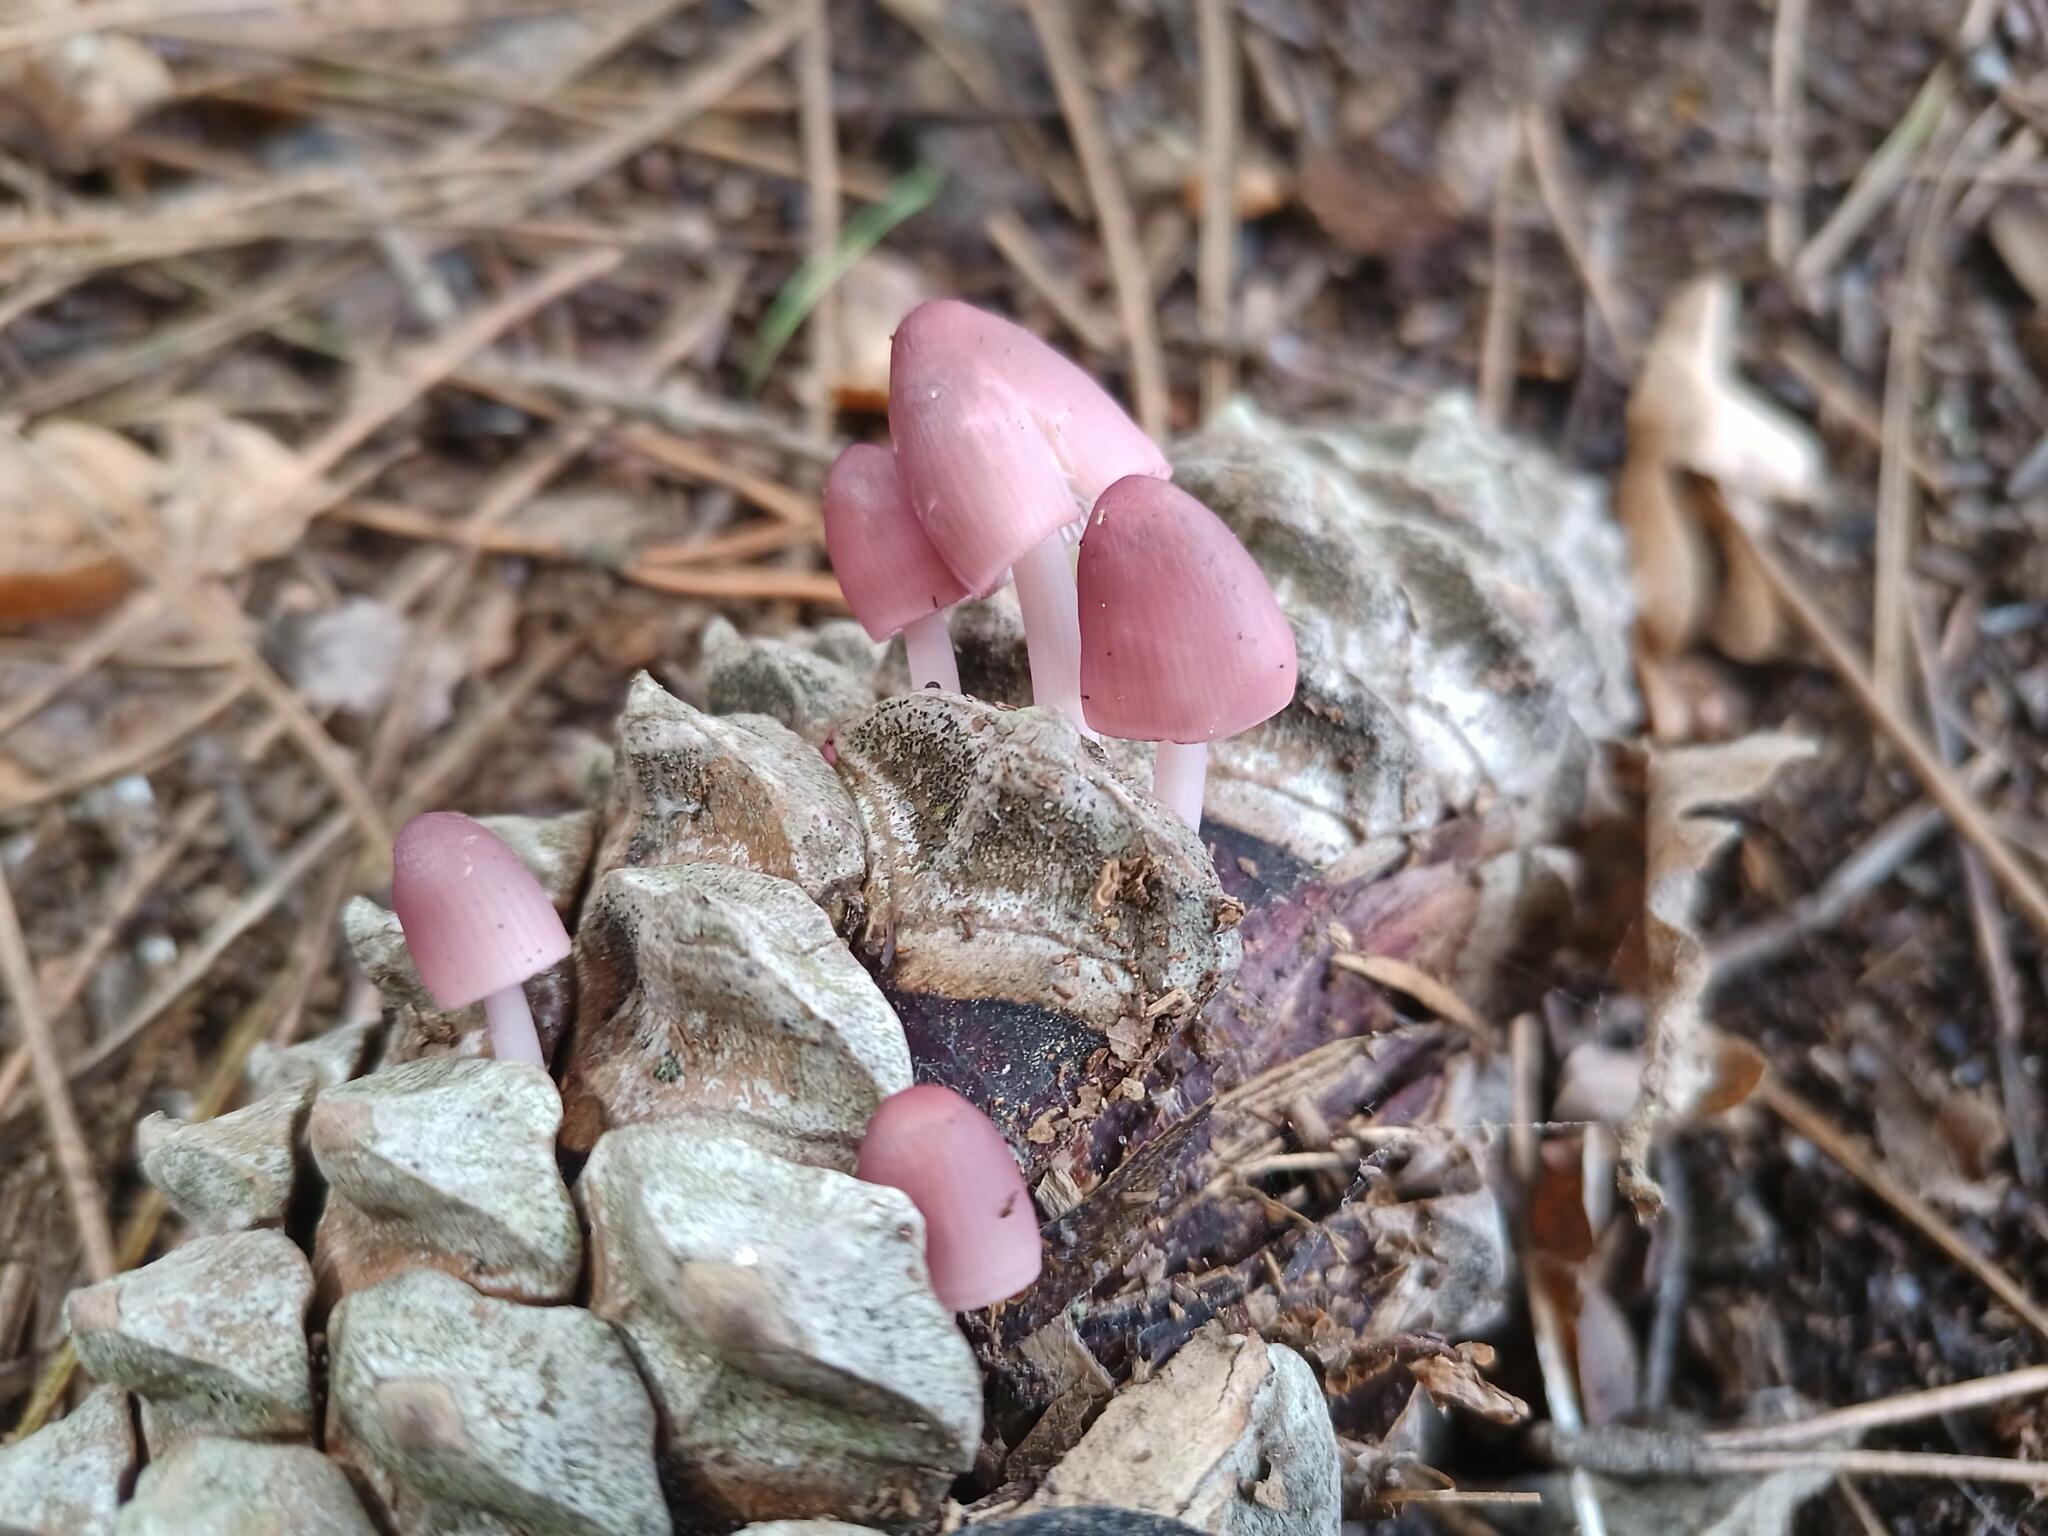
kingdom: Fungi
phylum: Basidiomycota
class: Agaricomycetes
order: Agaricales
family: Mycenaceae
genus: Mycena
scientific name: Mycena seynii
